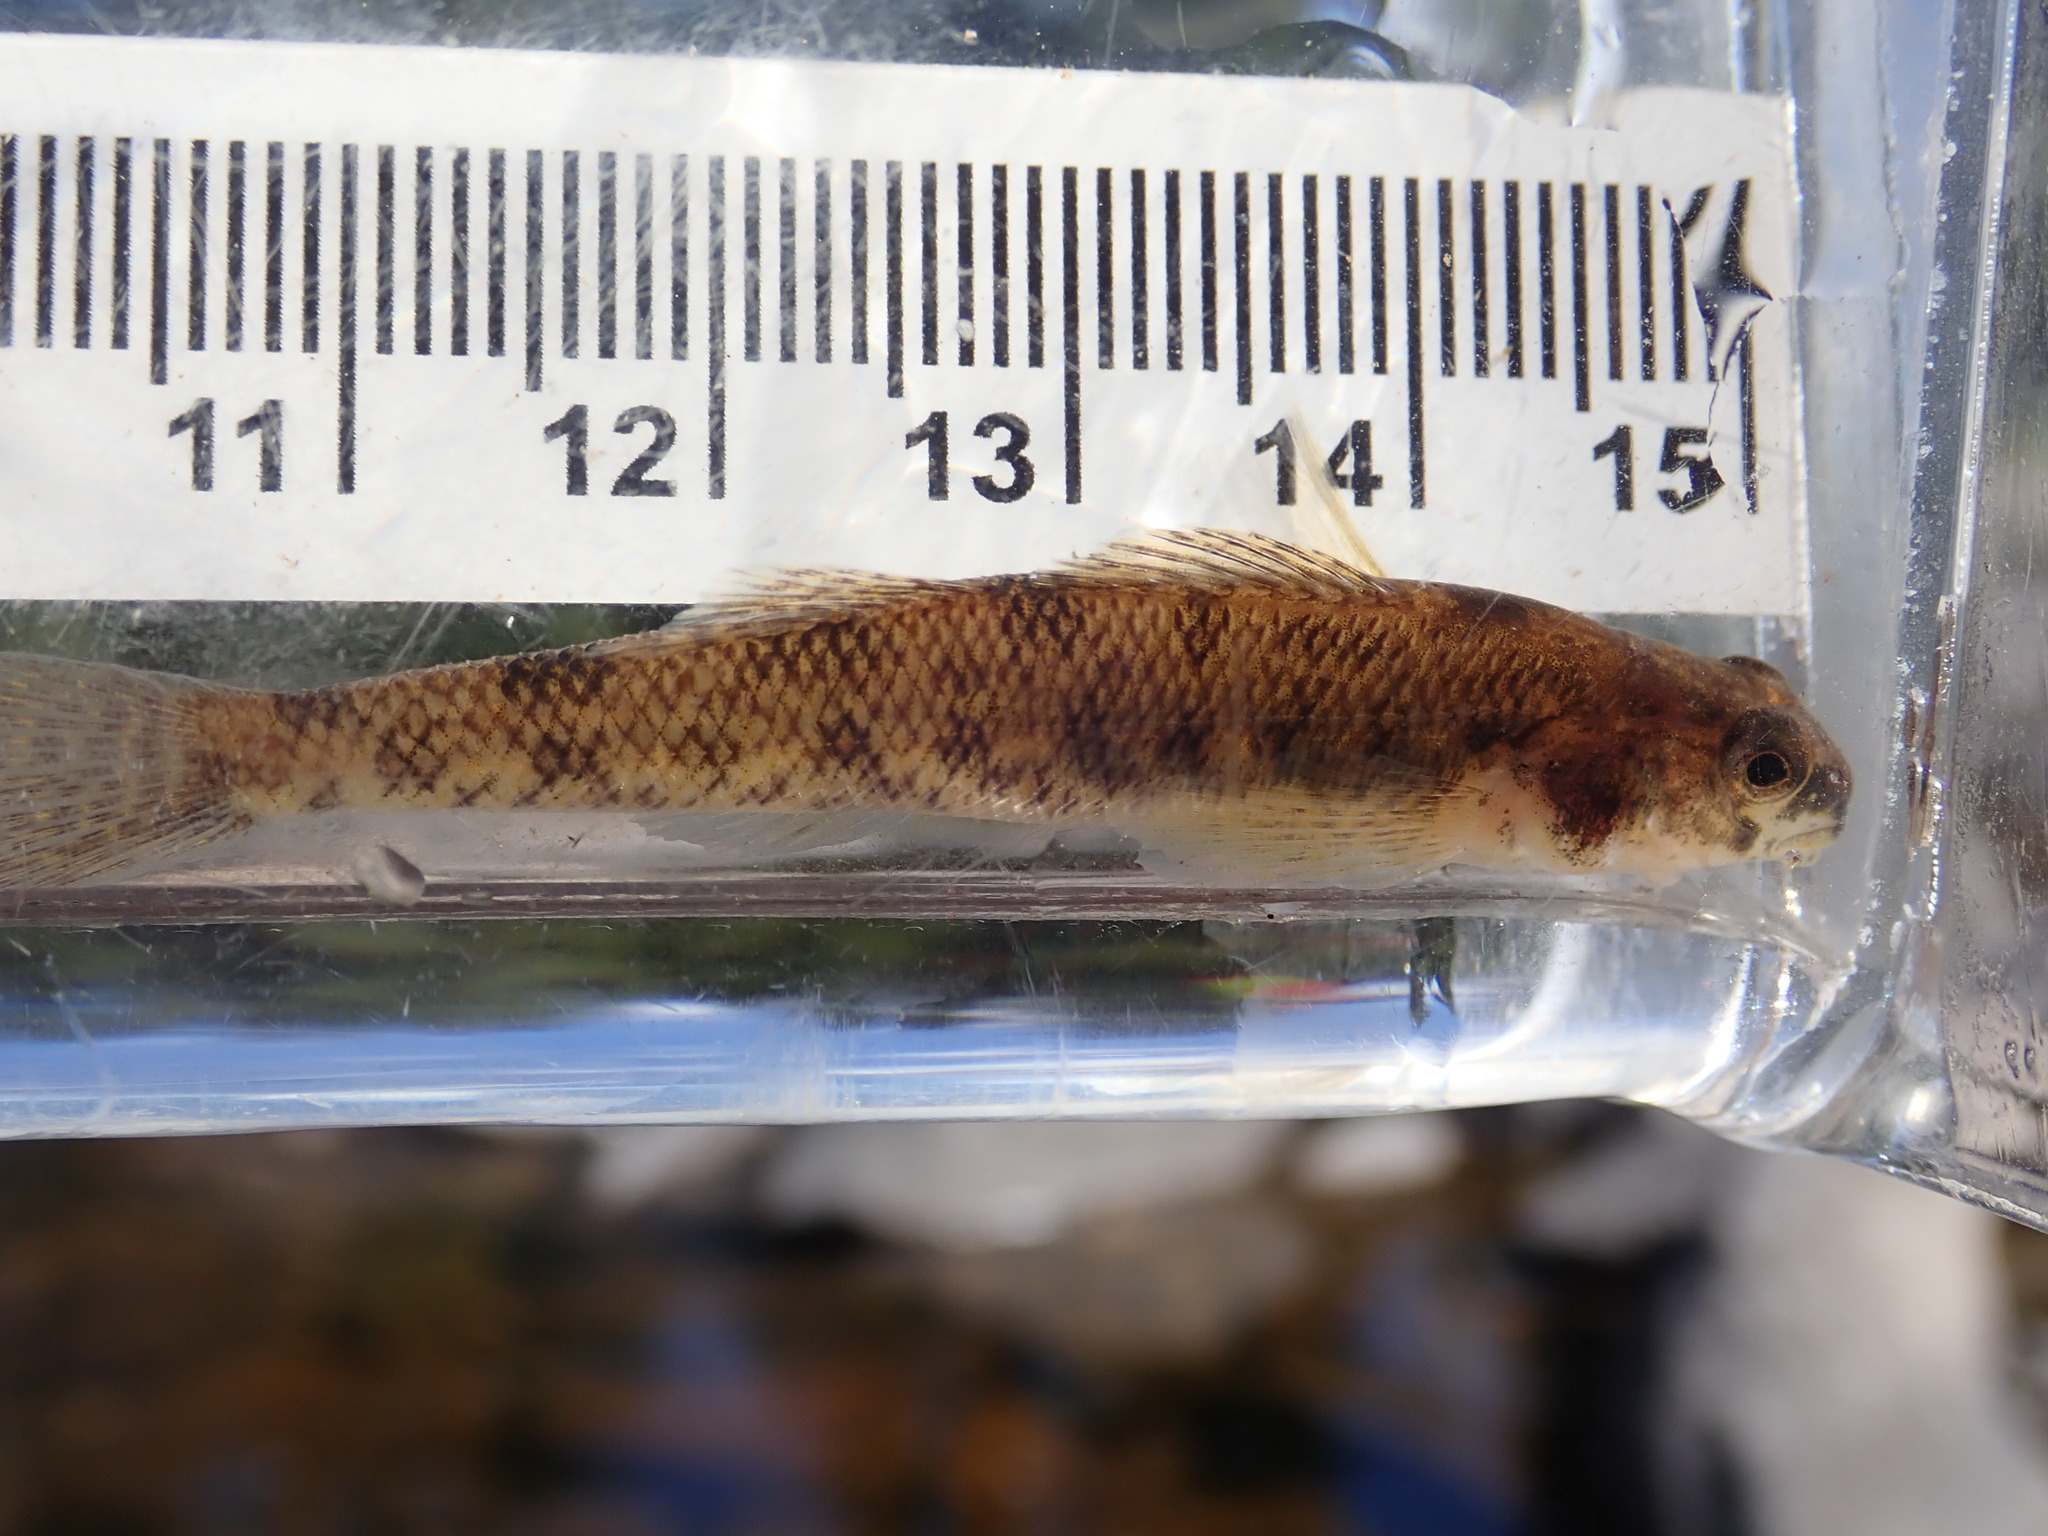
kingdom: Animalia
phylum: Chordata
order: Perciformes
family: Percidae
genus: Etheostoma
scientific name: Etheostoma nigrum
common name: Johnny darter
